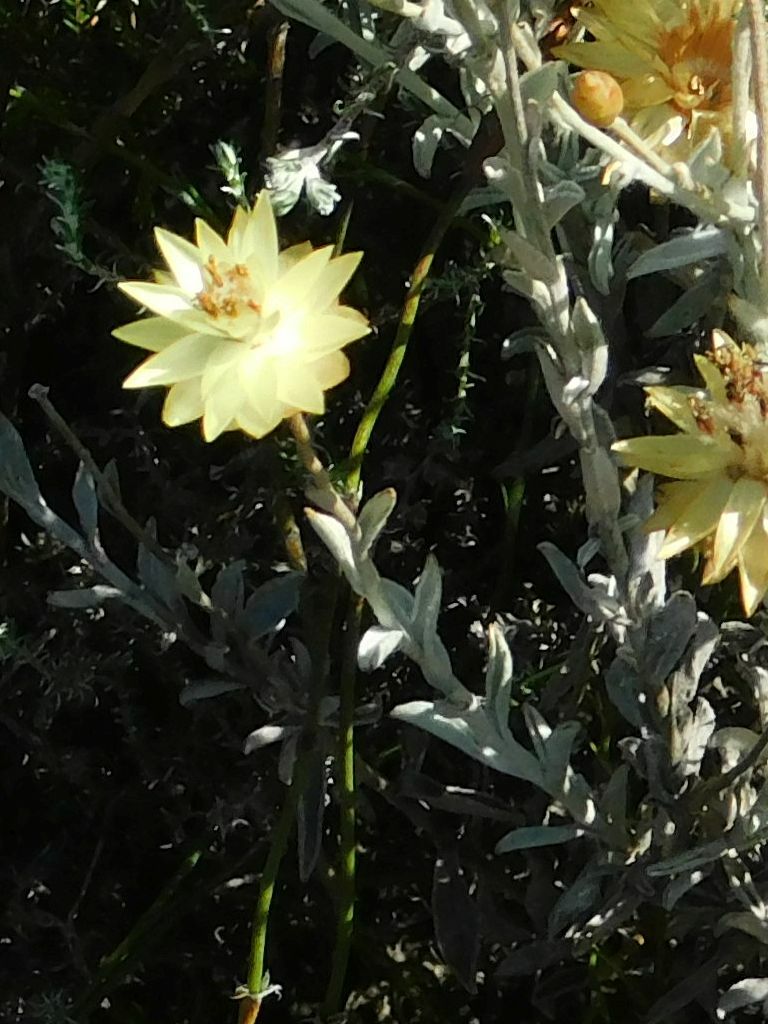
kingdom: Plantae
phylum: Tracheophyta
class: Magnoliopsida
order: Asterales
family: Asteraceae
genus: Syncarpha
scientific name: Syncarpha staehelina
